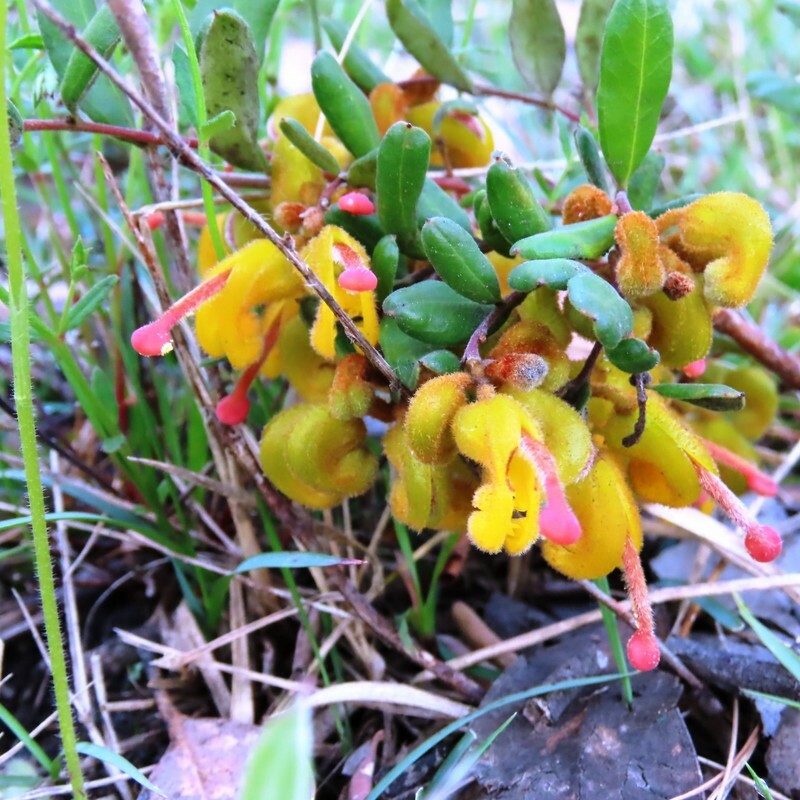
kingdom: Plantae
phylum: Tracheophyta
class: Magnoliopsida
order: Proteales
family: Proteaceae
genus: Grevillea
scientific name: Grevillea chrysophaea
